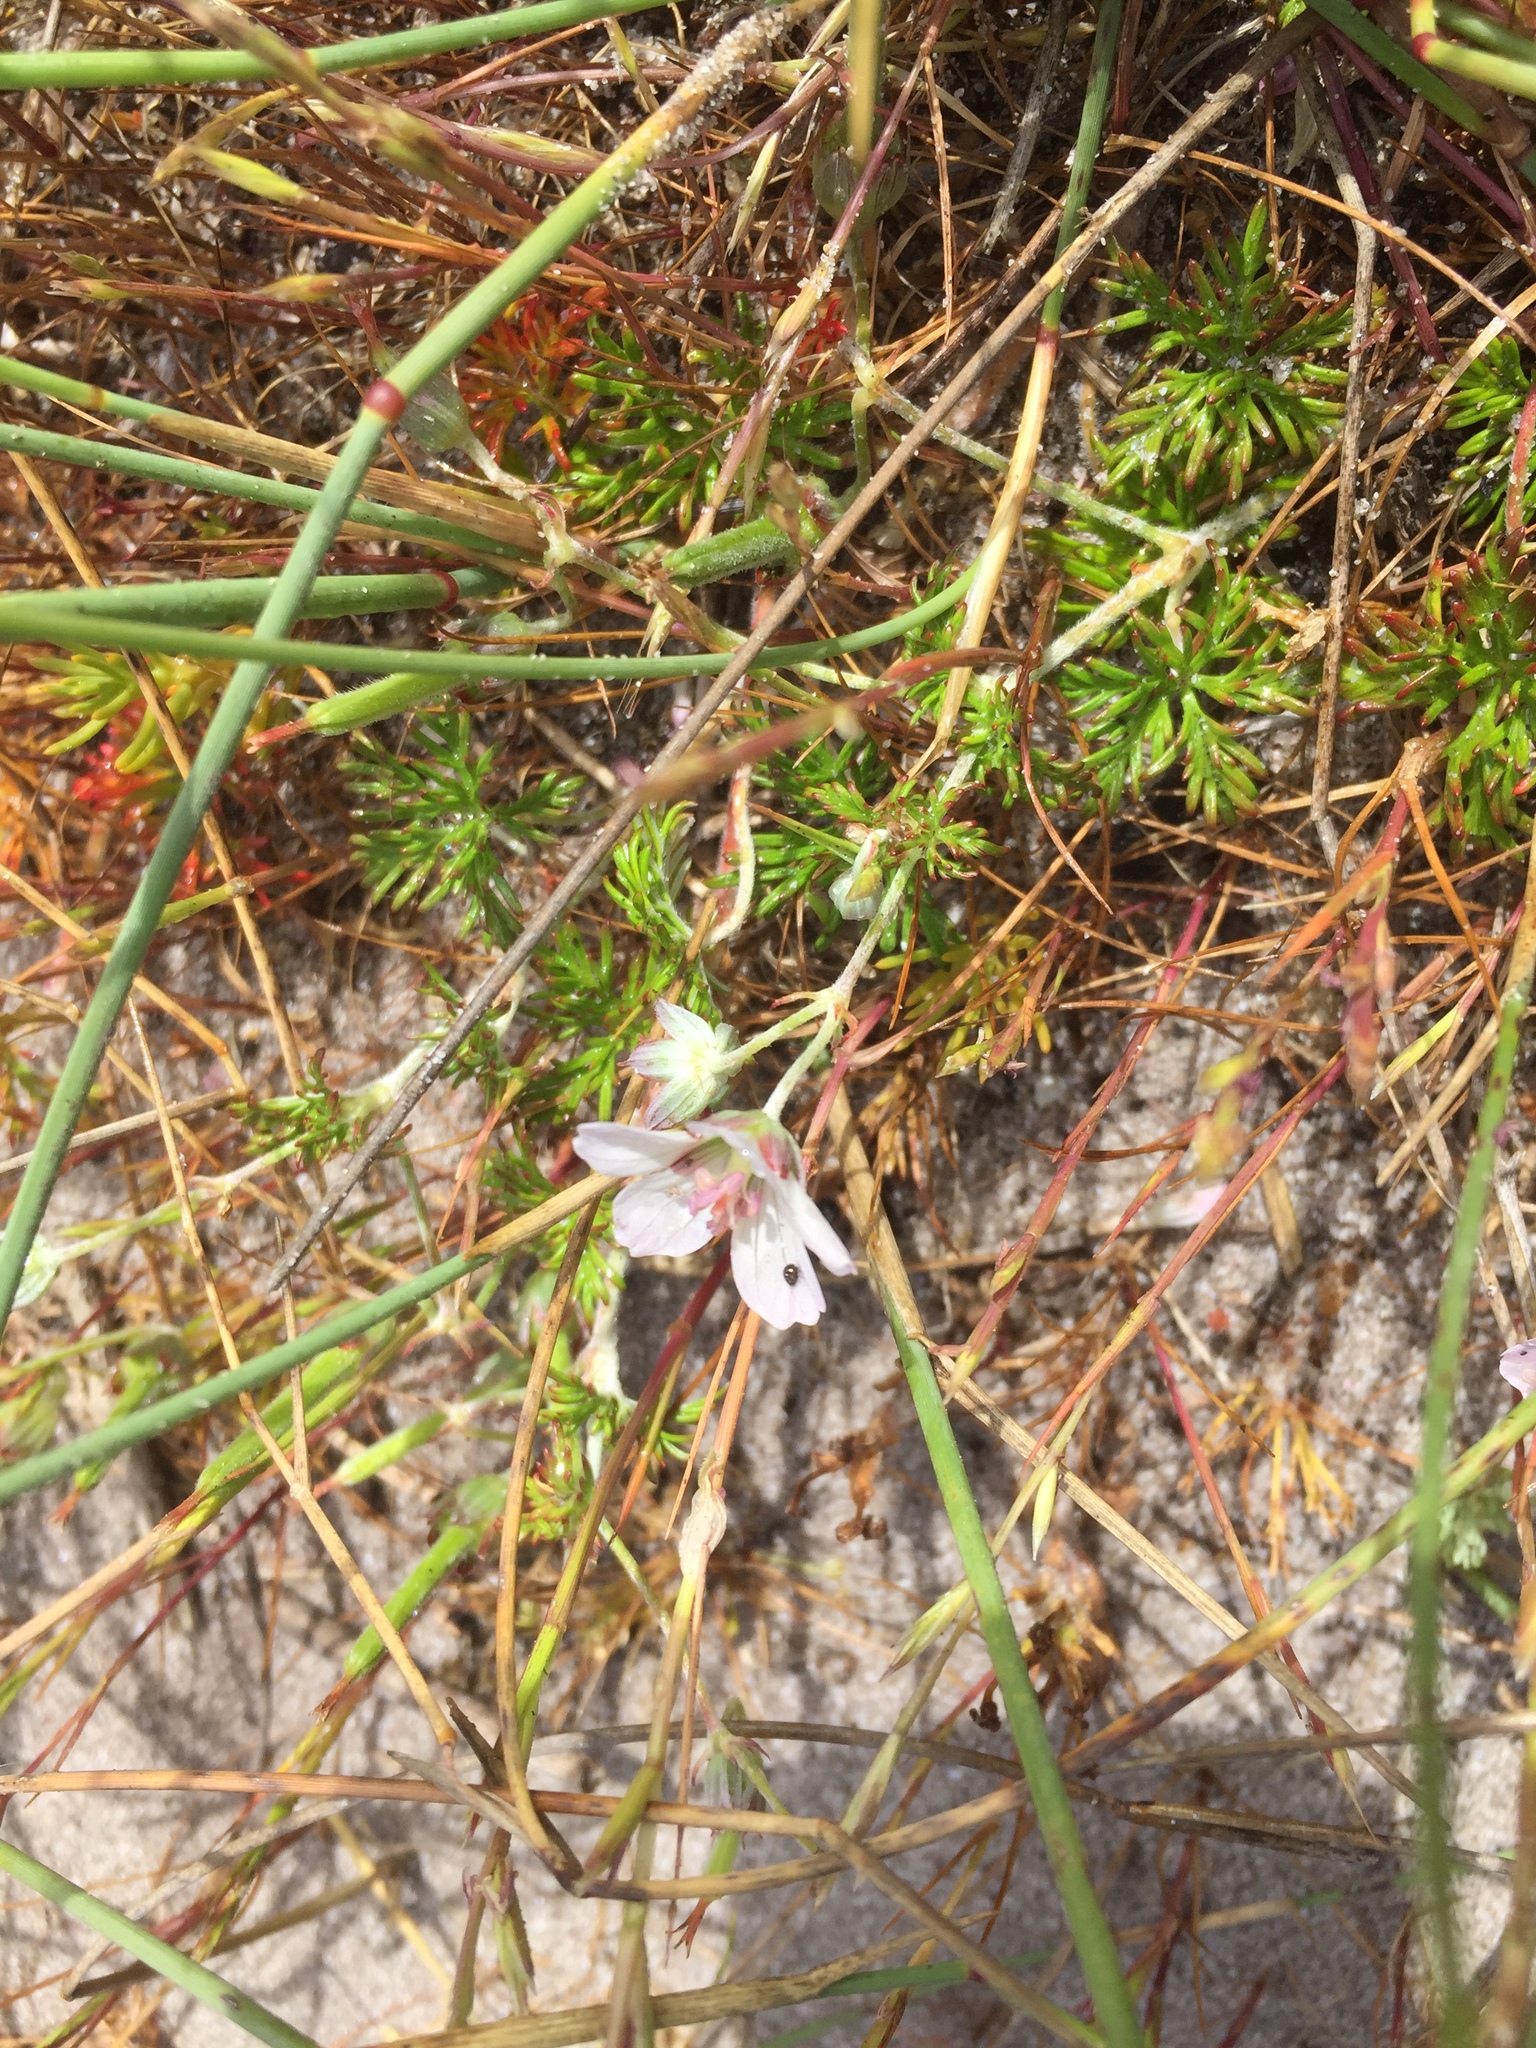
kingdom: Plantae
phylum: Tracheophyta
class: Magnoliopsida
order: Geraniales
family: Geraniaceae
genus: Geranium
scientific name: Geranium incanum
